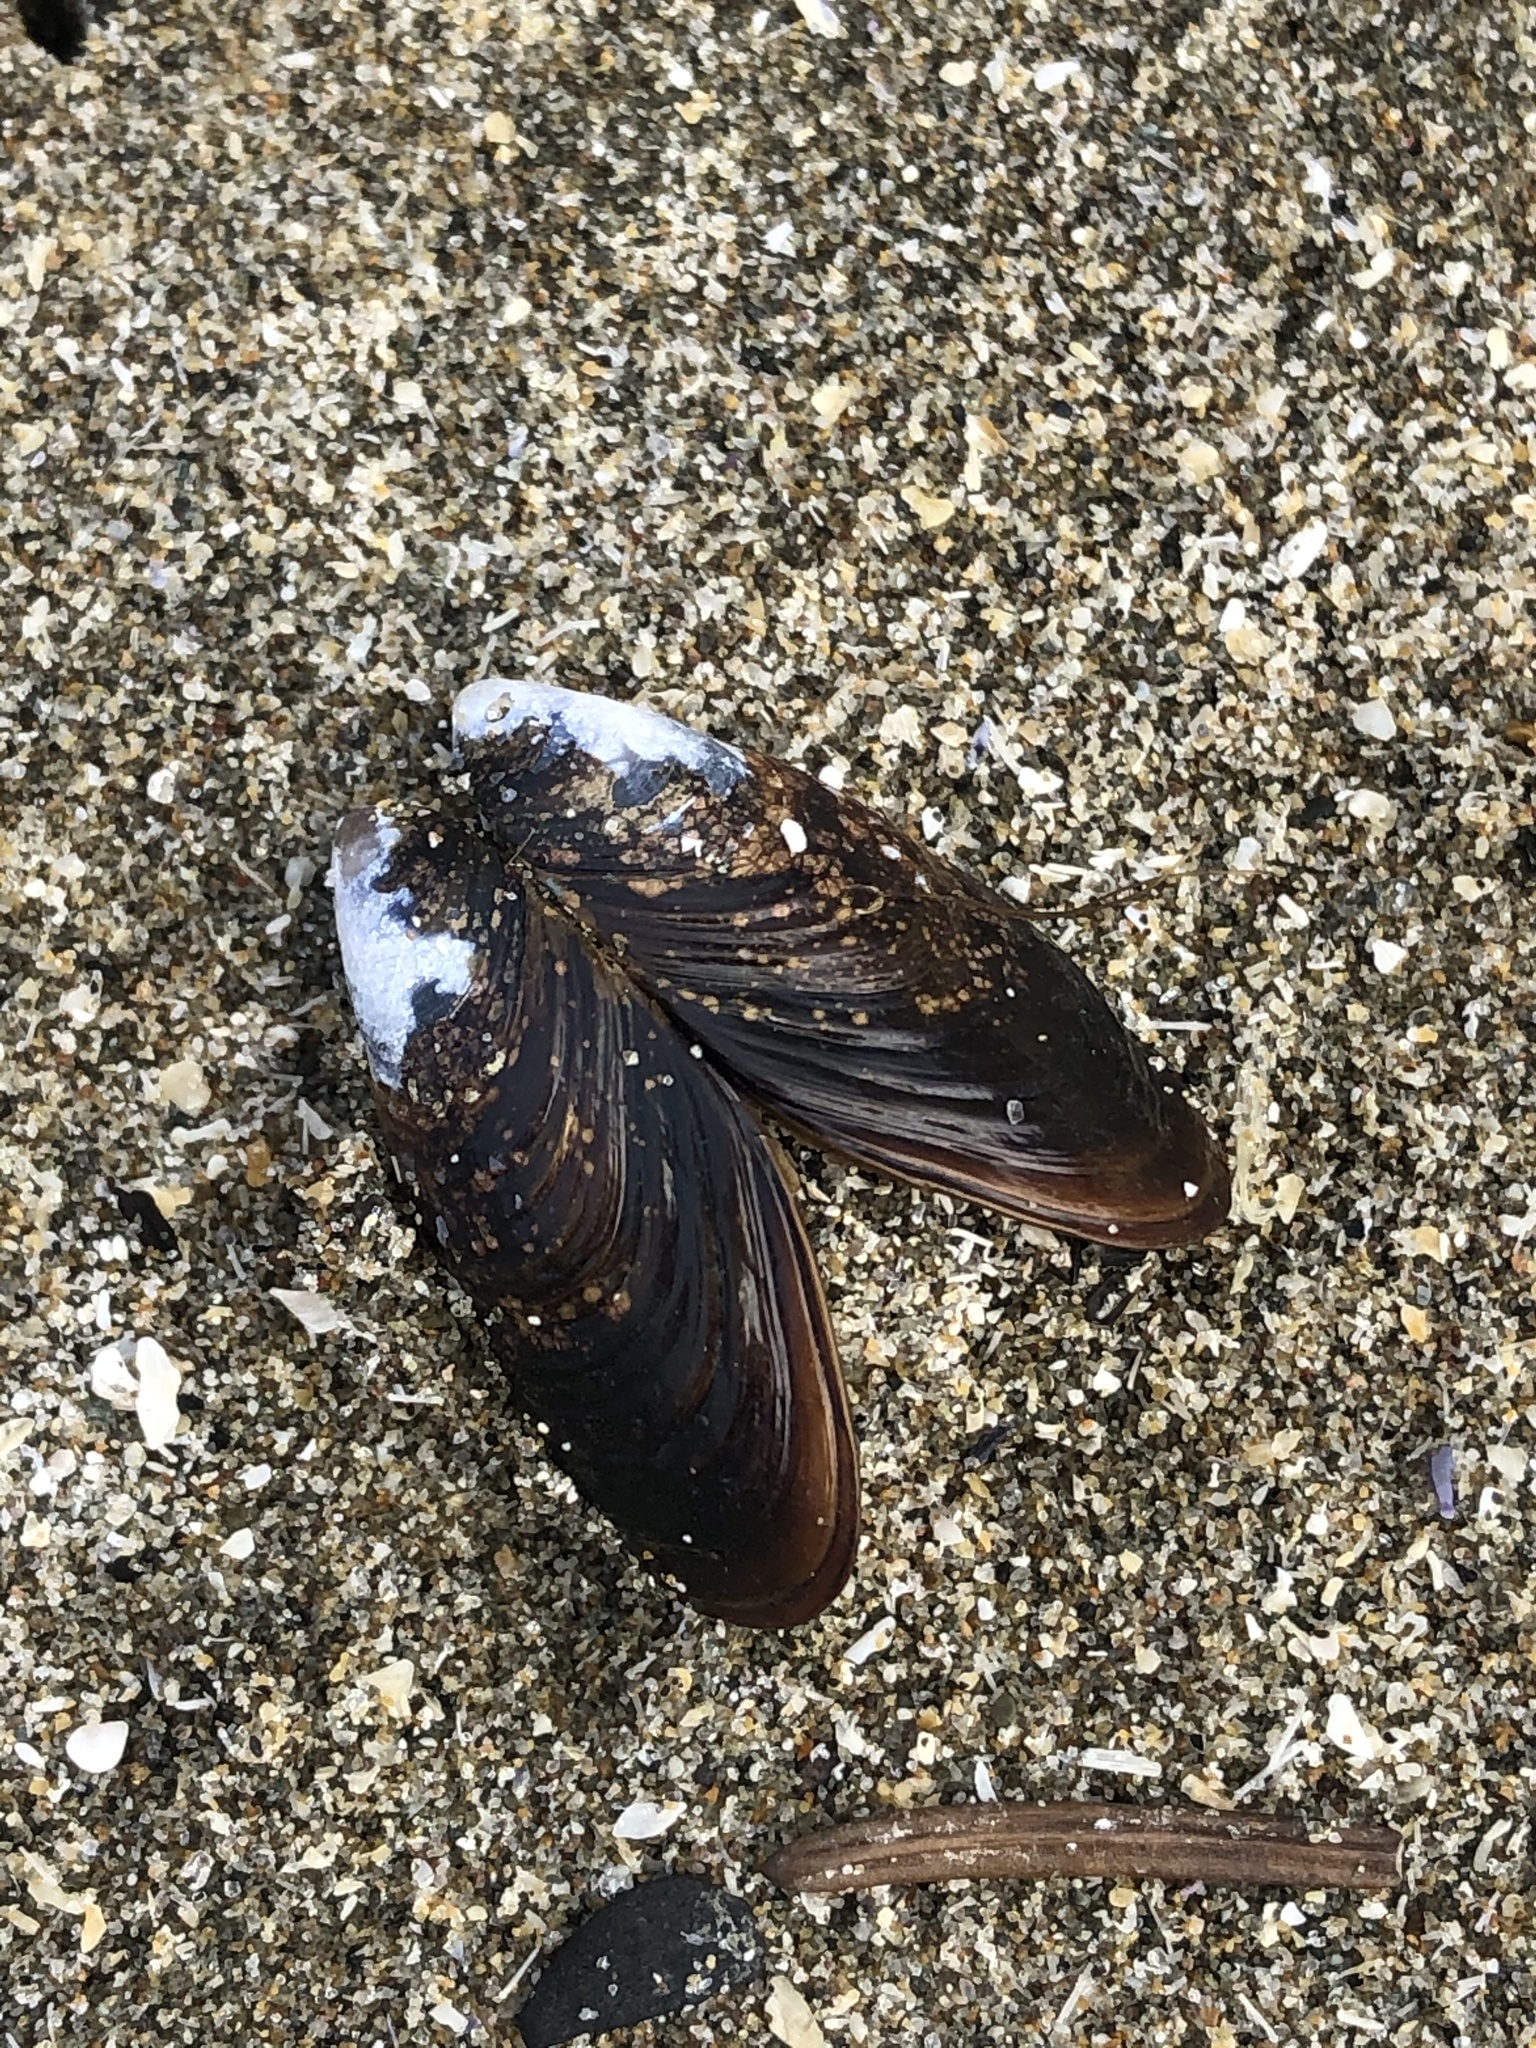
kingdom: Animalia
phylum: Mollusca
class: Bivalvia
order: Mytilida
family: Mytilidae
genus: Mytilus
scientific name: Mytilus californianus
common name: California mussel
